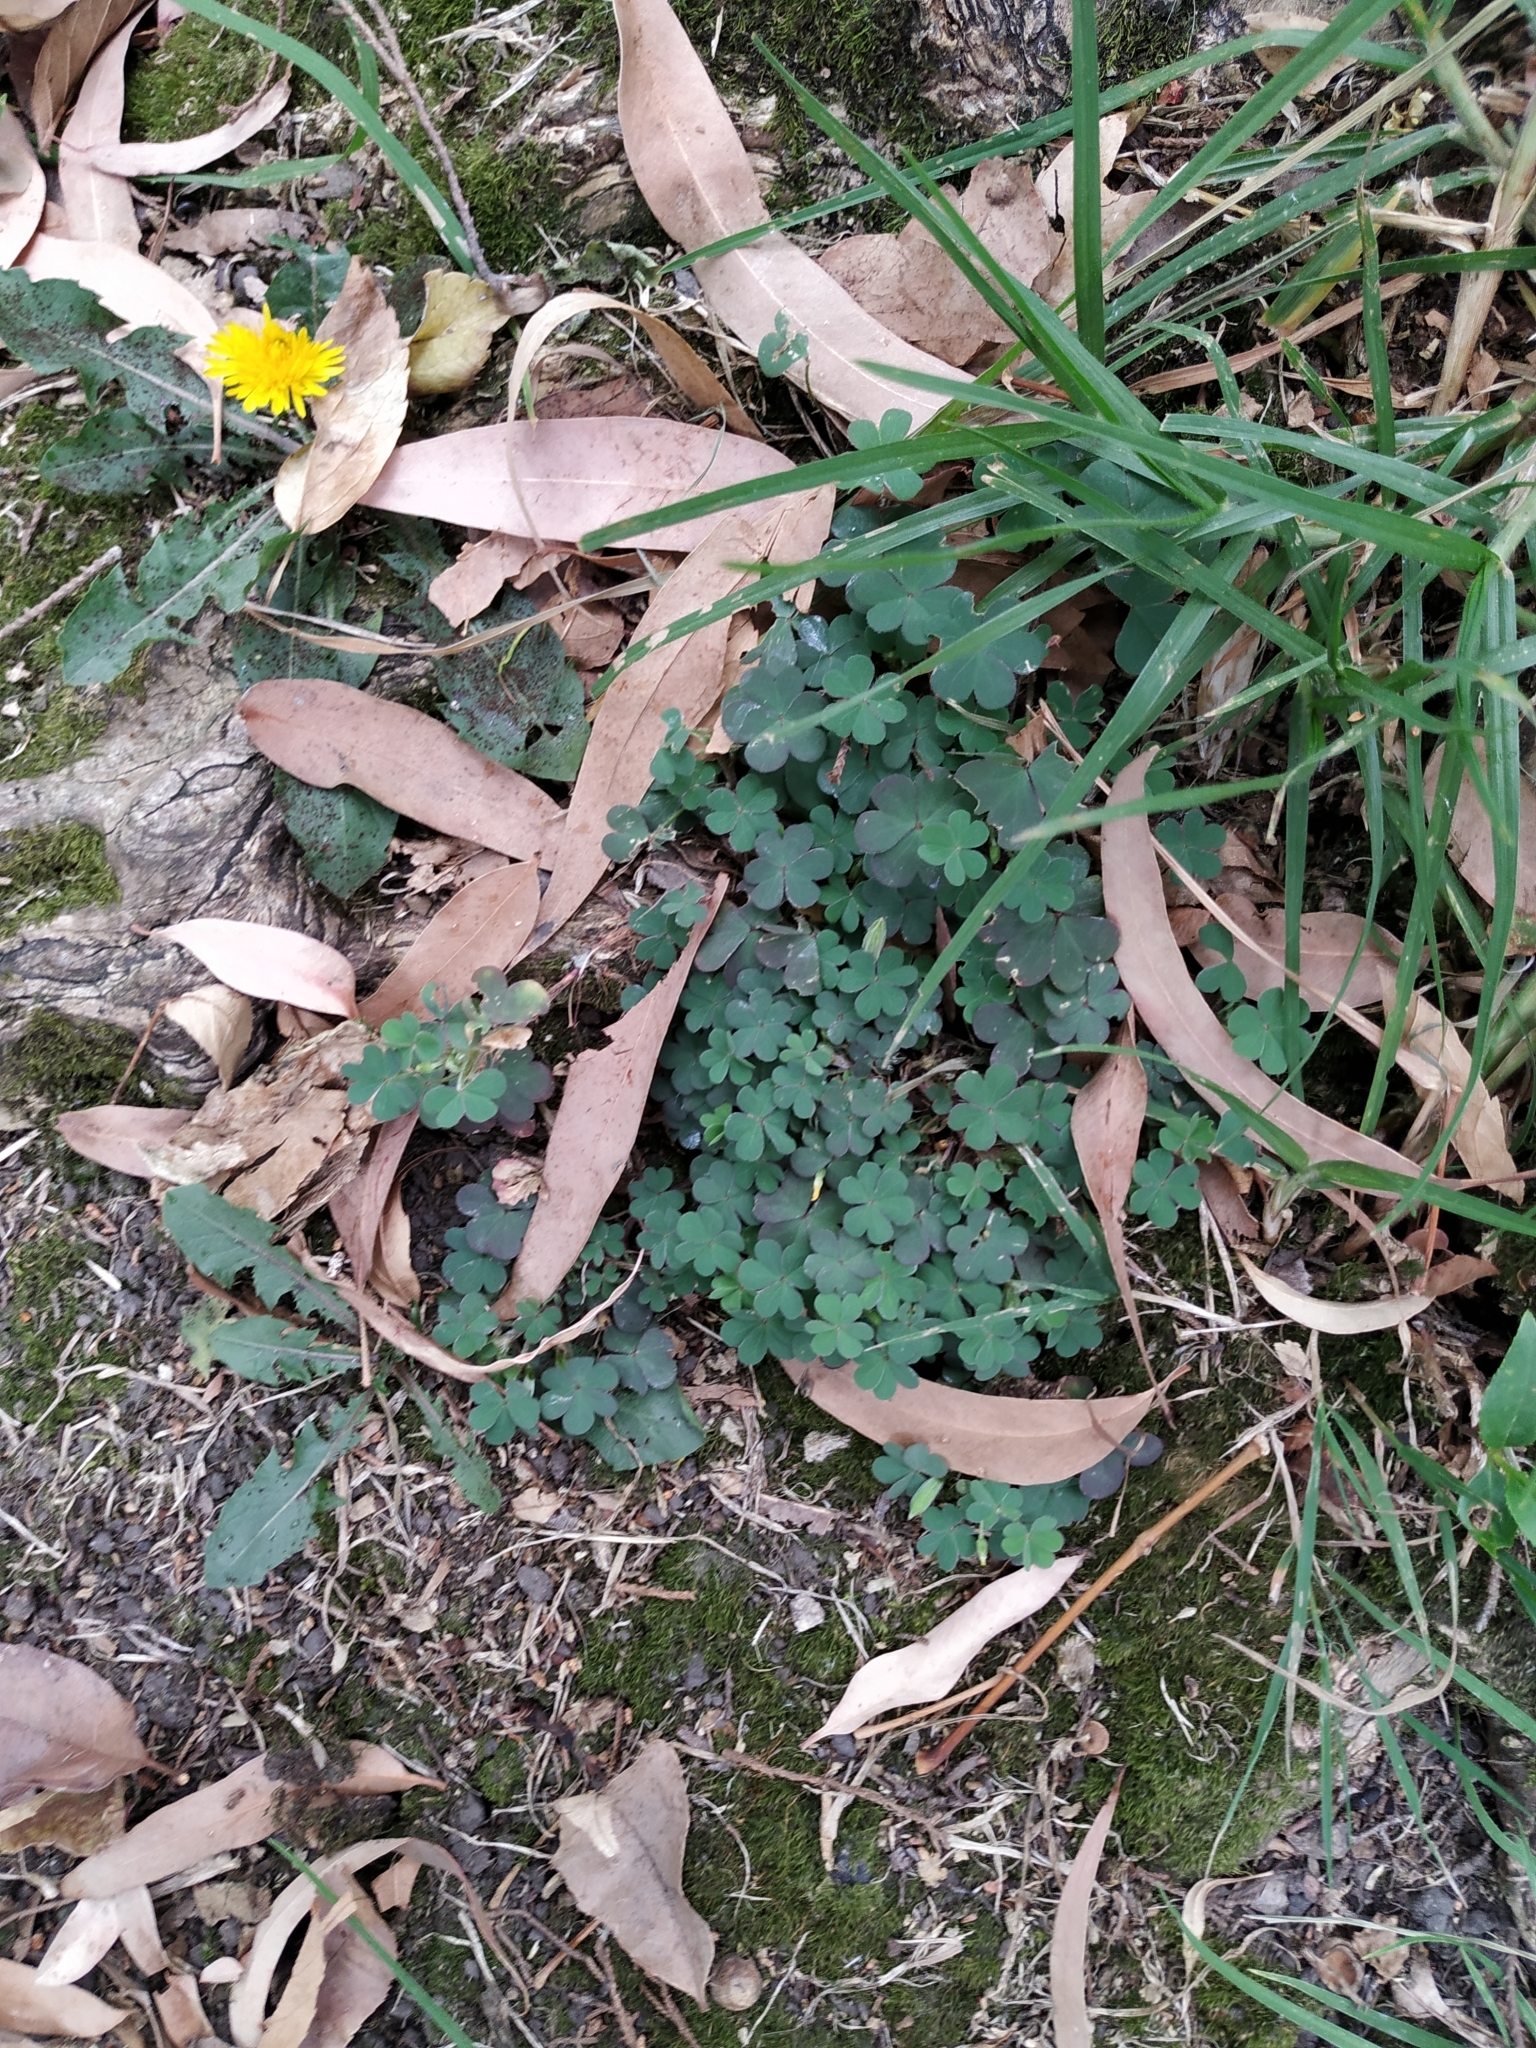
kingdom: Plantae
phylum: Tracheophyta
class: Magnoliopsida
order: Oxalidales
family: Oxalidaceae
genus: Oxalis
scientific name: Oxalis corniculata
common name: Procumbent yellow-sorrel
